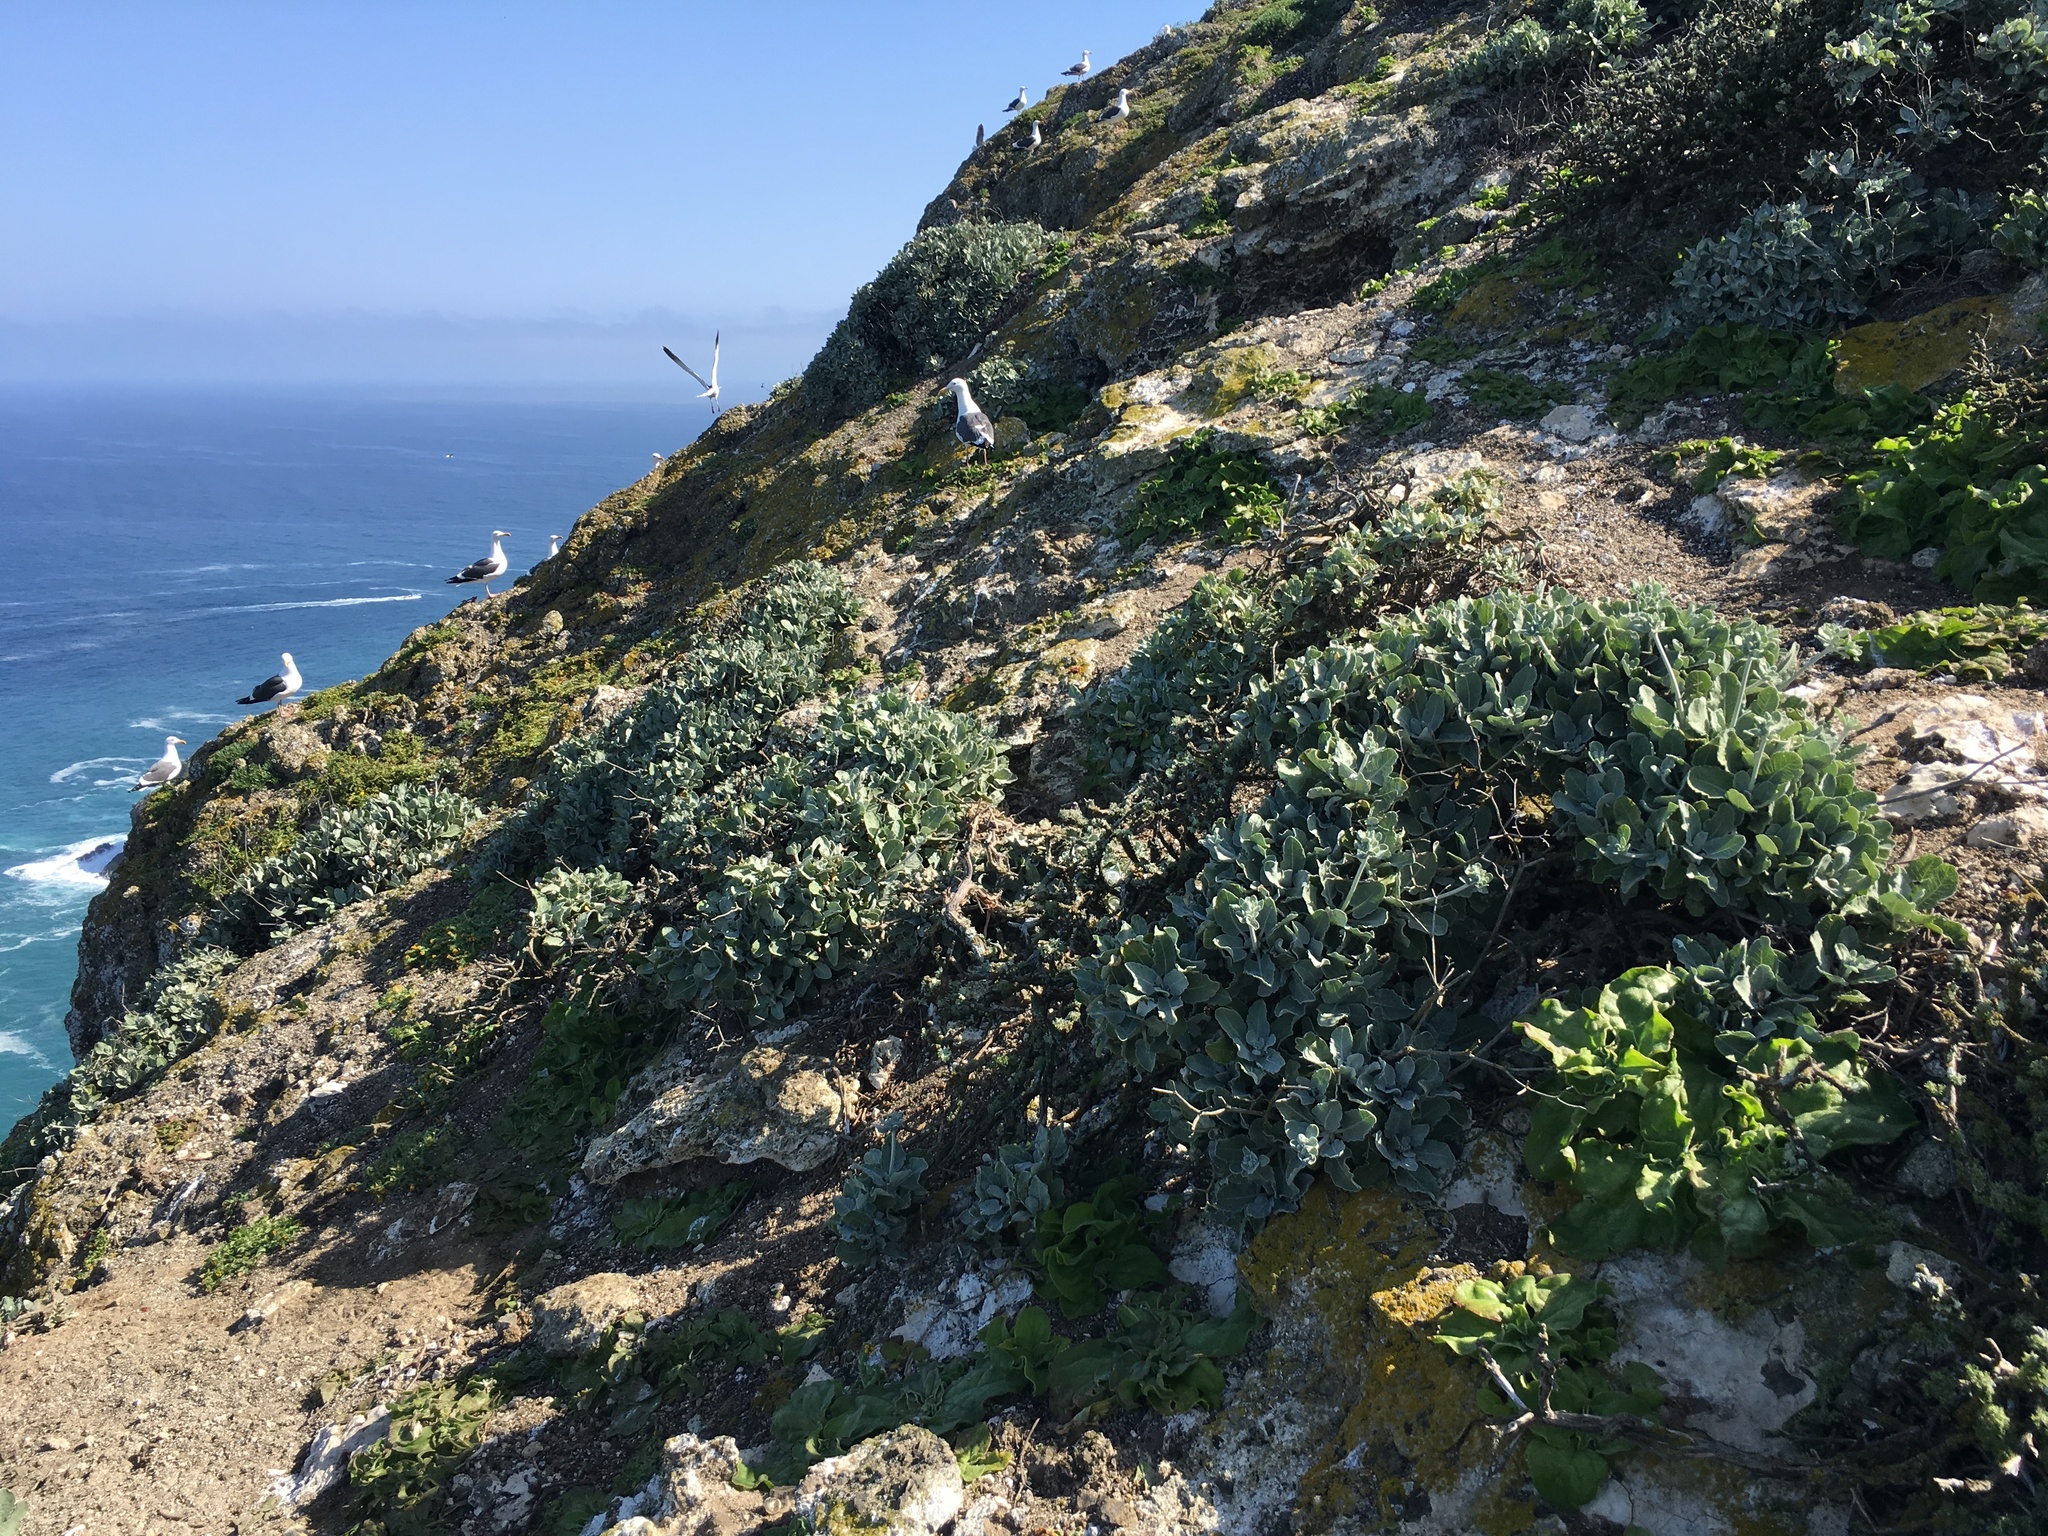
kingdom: Animalia
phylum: Chordata
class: Aves
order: Charadriiformes
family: Laridae
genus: Larus
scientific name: Larus occidentalis
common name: Western gull
